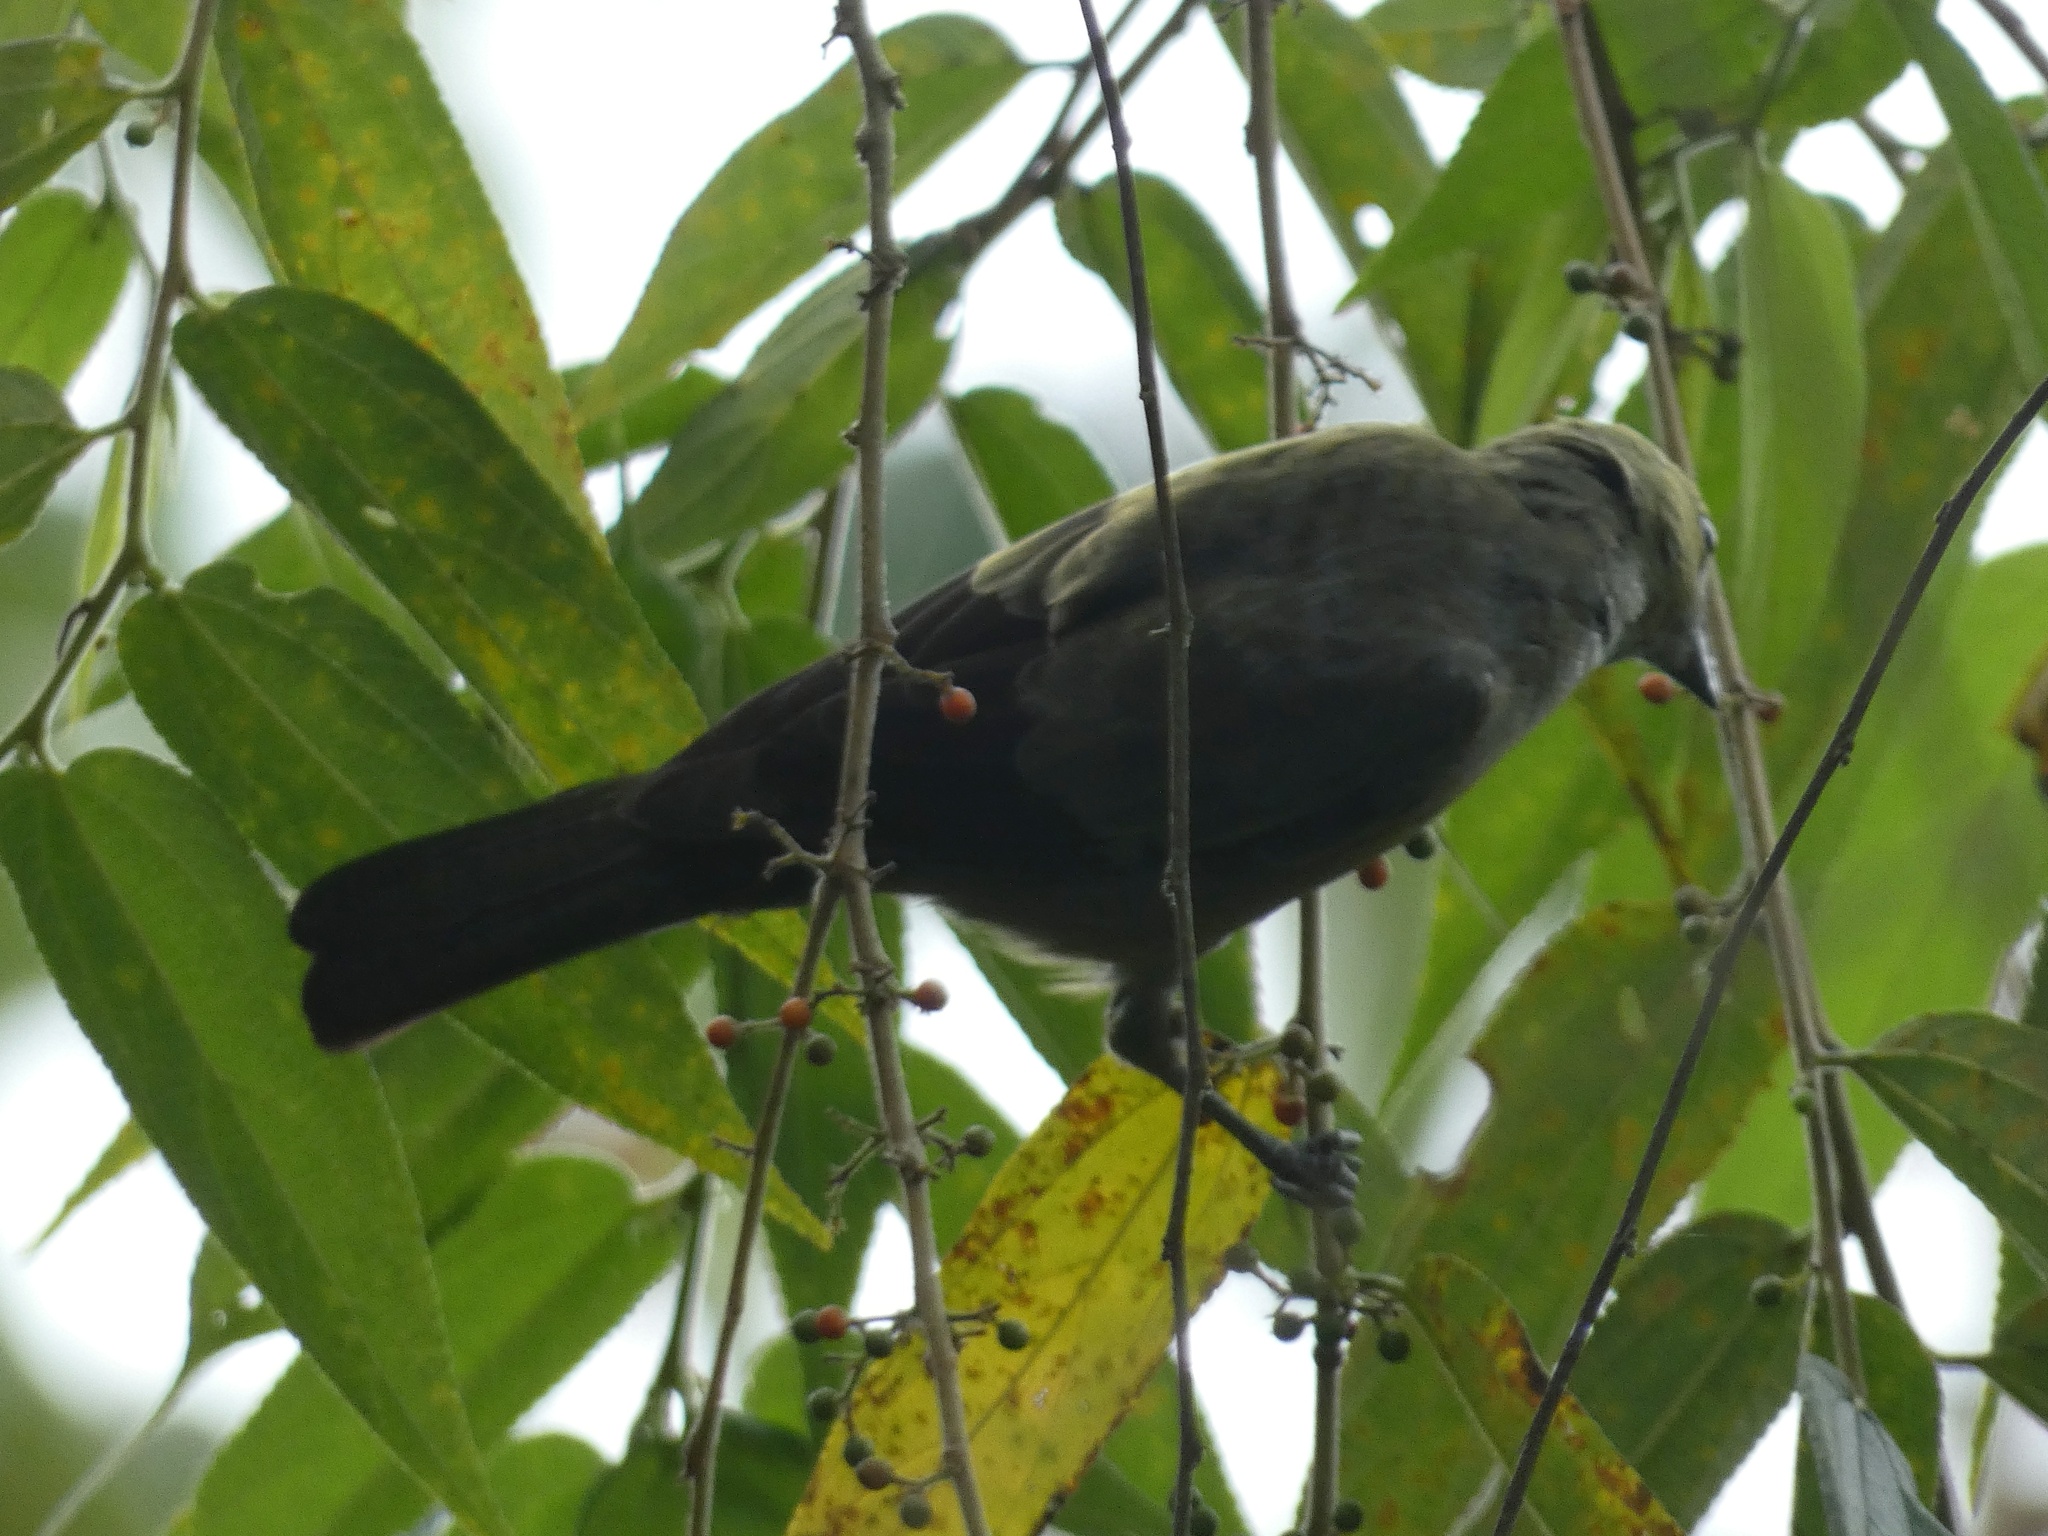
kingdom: Animalia
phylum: Chordata
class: Aves
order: Passeriformes
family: Thraupidae
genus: Thraupis
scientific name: Thraupis palmarum
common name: Palm tanager
